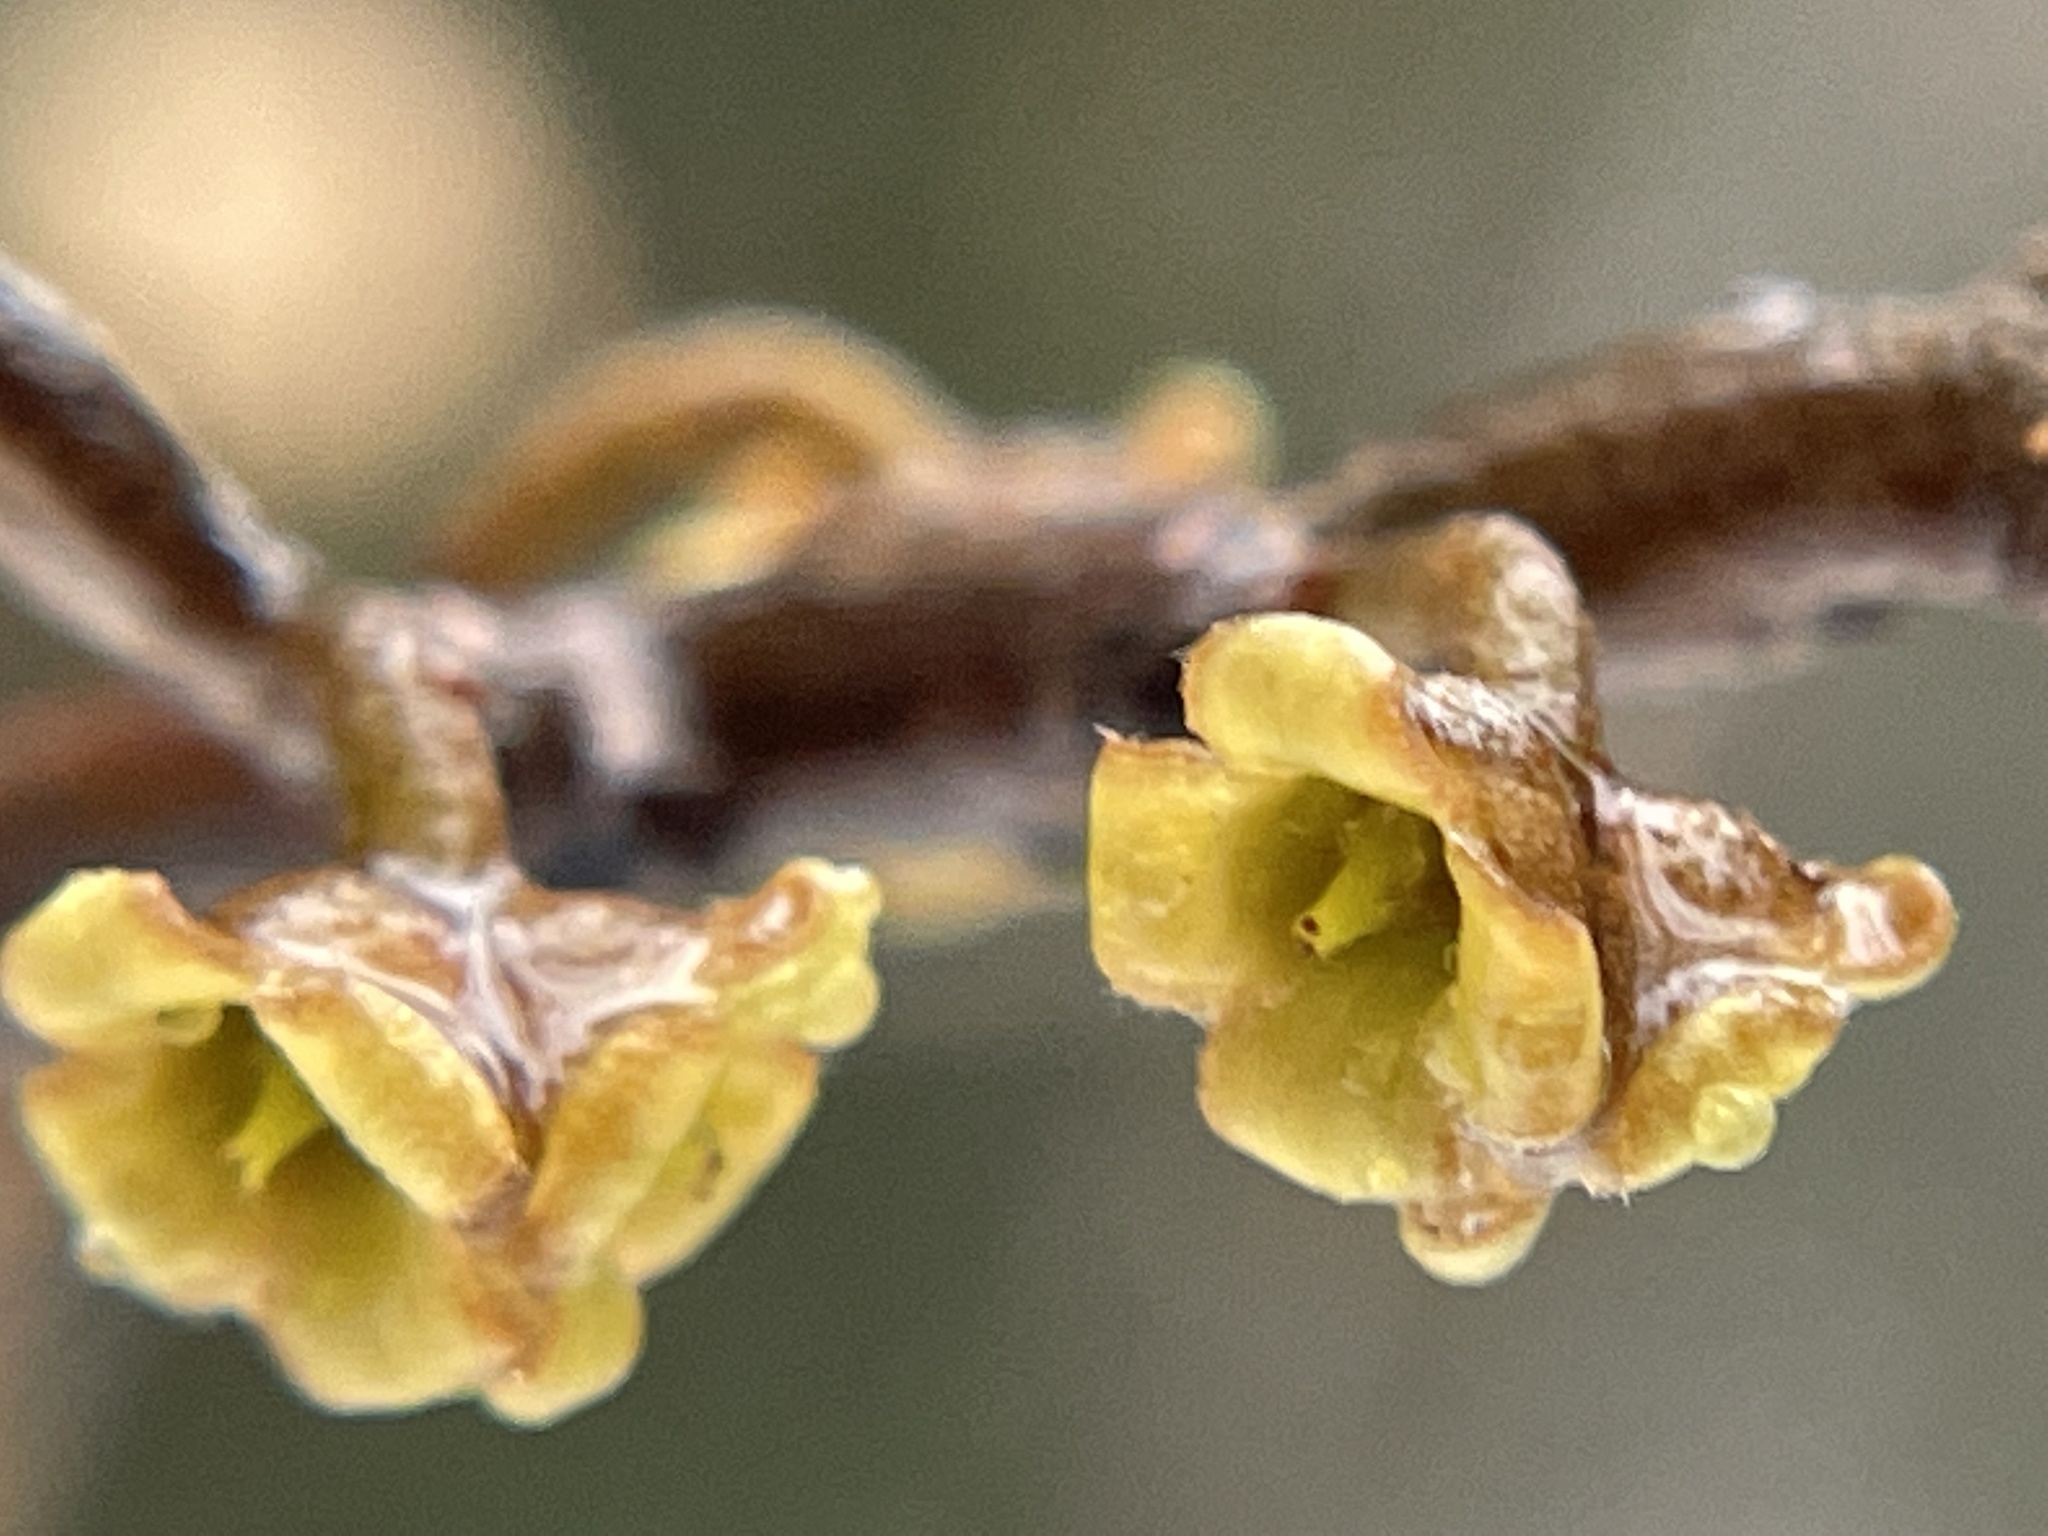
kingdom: Plantae
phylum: Tracheophyta
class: Magnoliopsida
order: Saxifragales
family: Hamamelidaceae
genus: Hamamelis
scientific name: Hamamelis virginiana
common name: Witch-hazel
